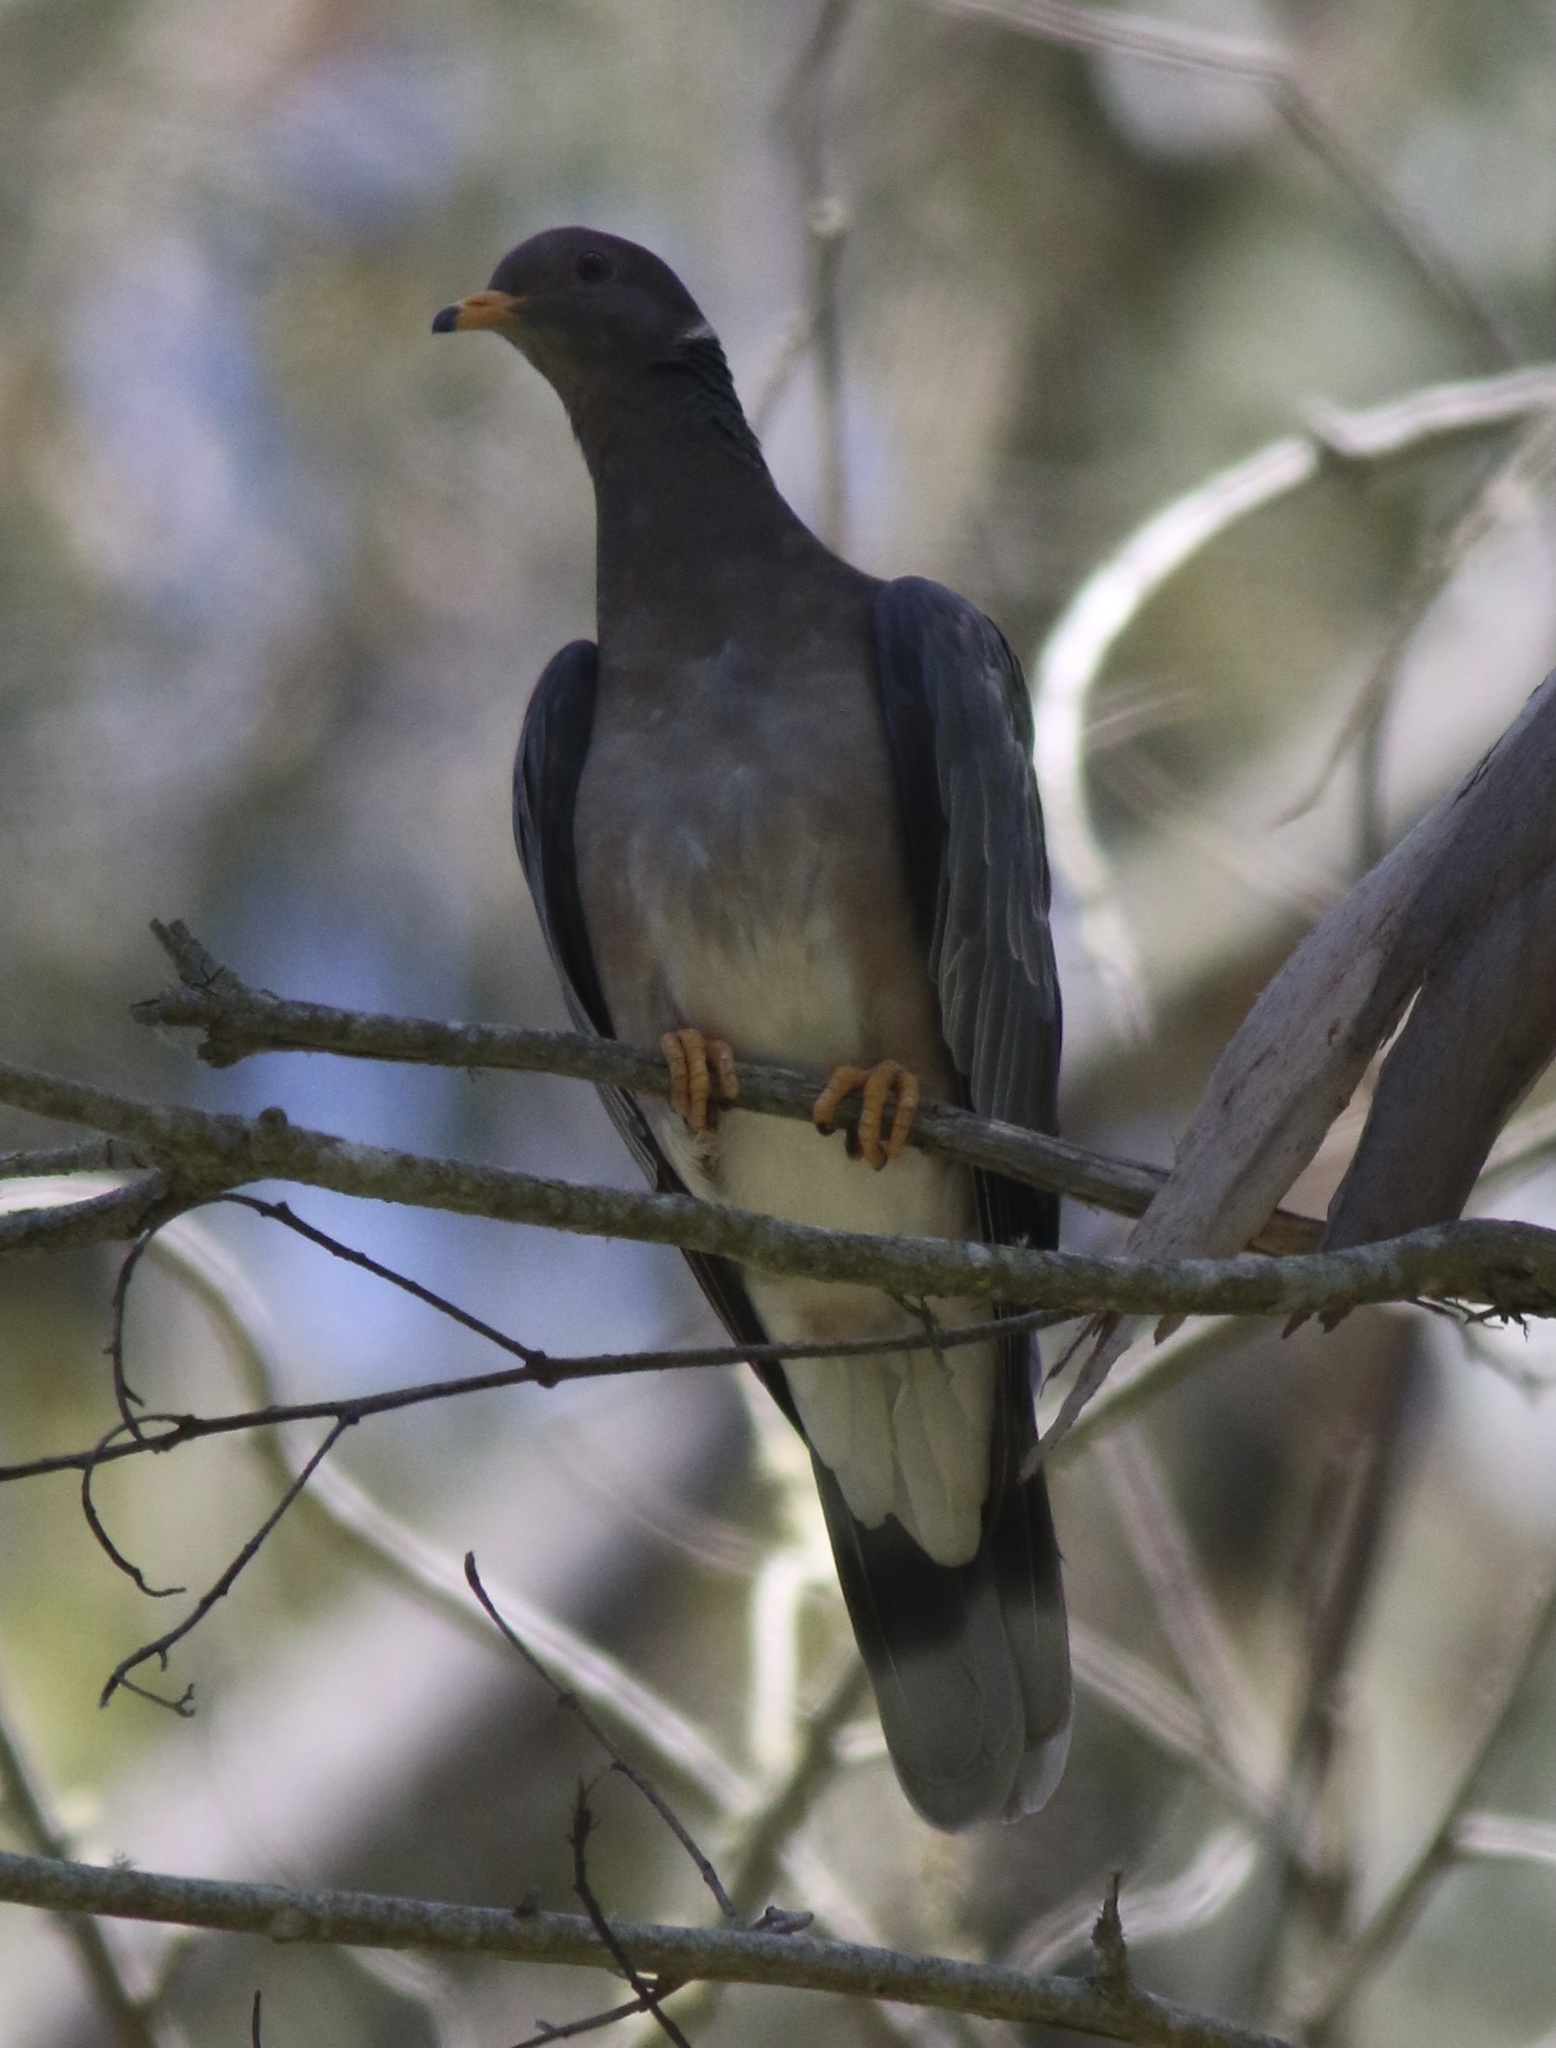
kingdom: Animalia
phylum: Chordata
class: Aves
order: Columbiformes
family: Columbidae
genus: Patagioenas
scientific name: Patagioenas fasciata
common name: Band-tailed pigeon
